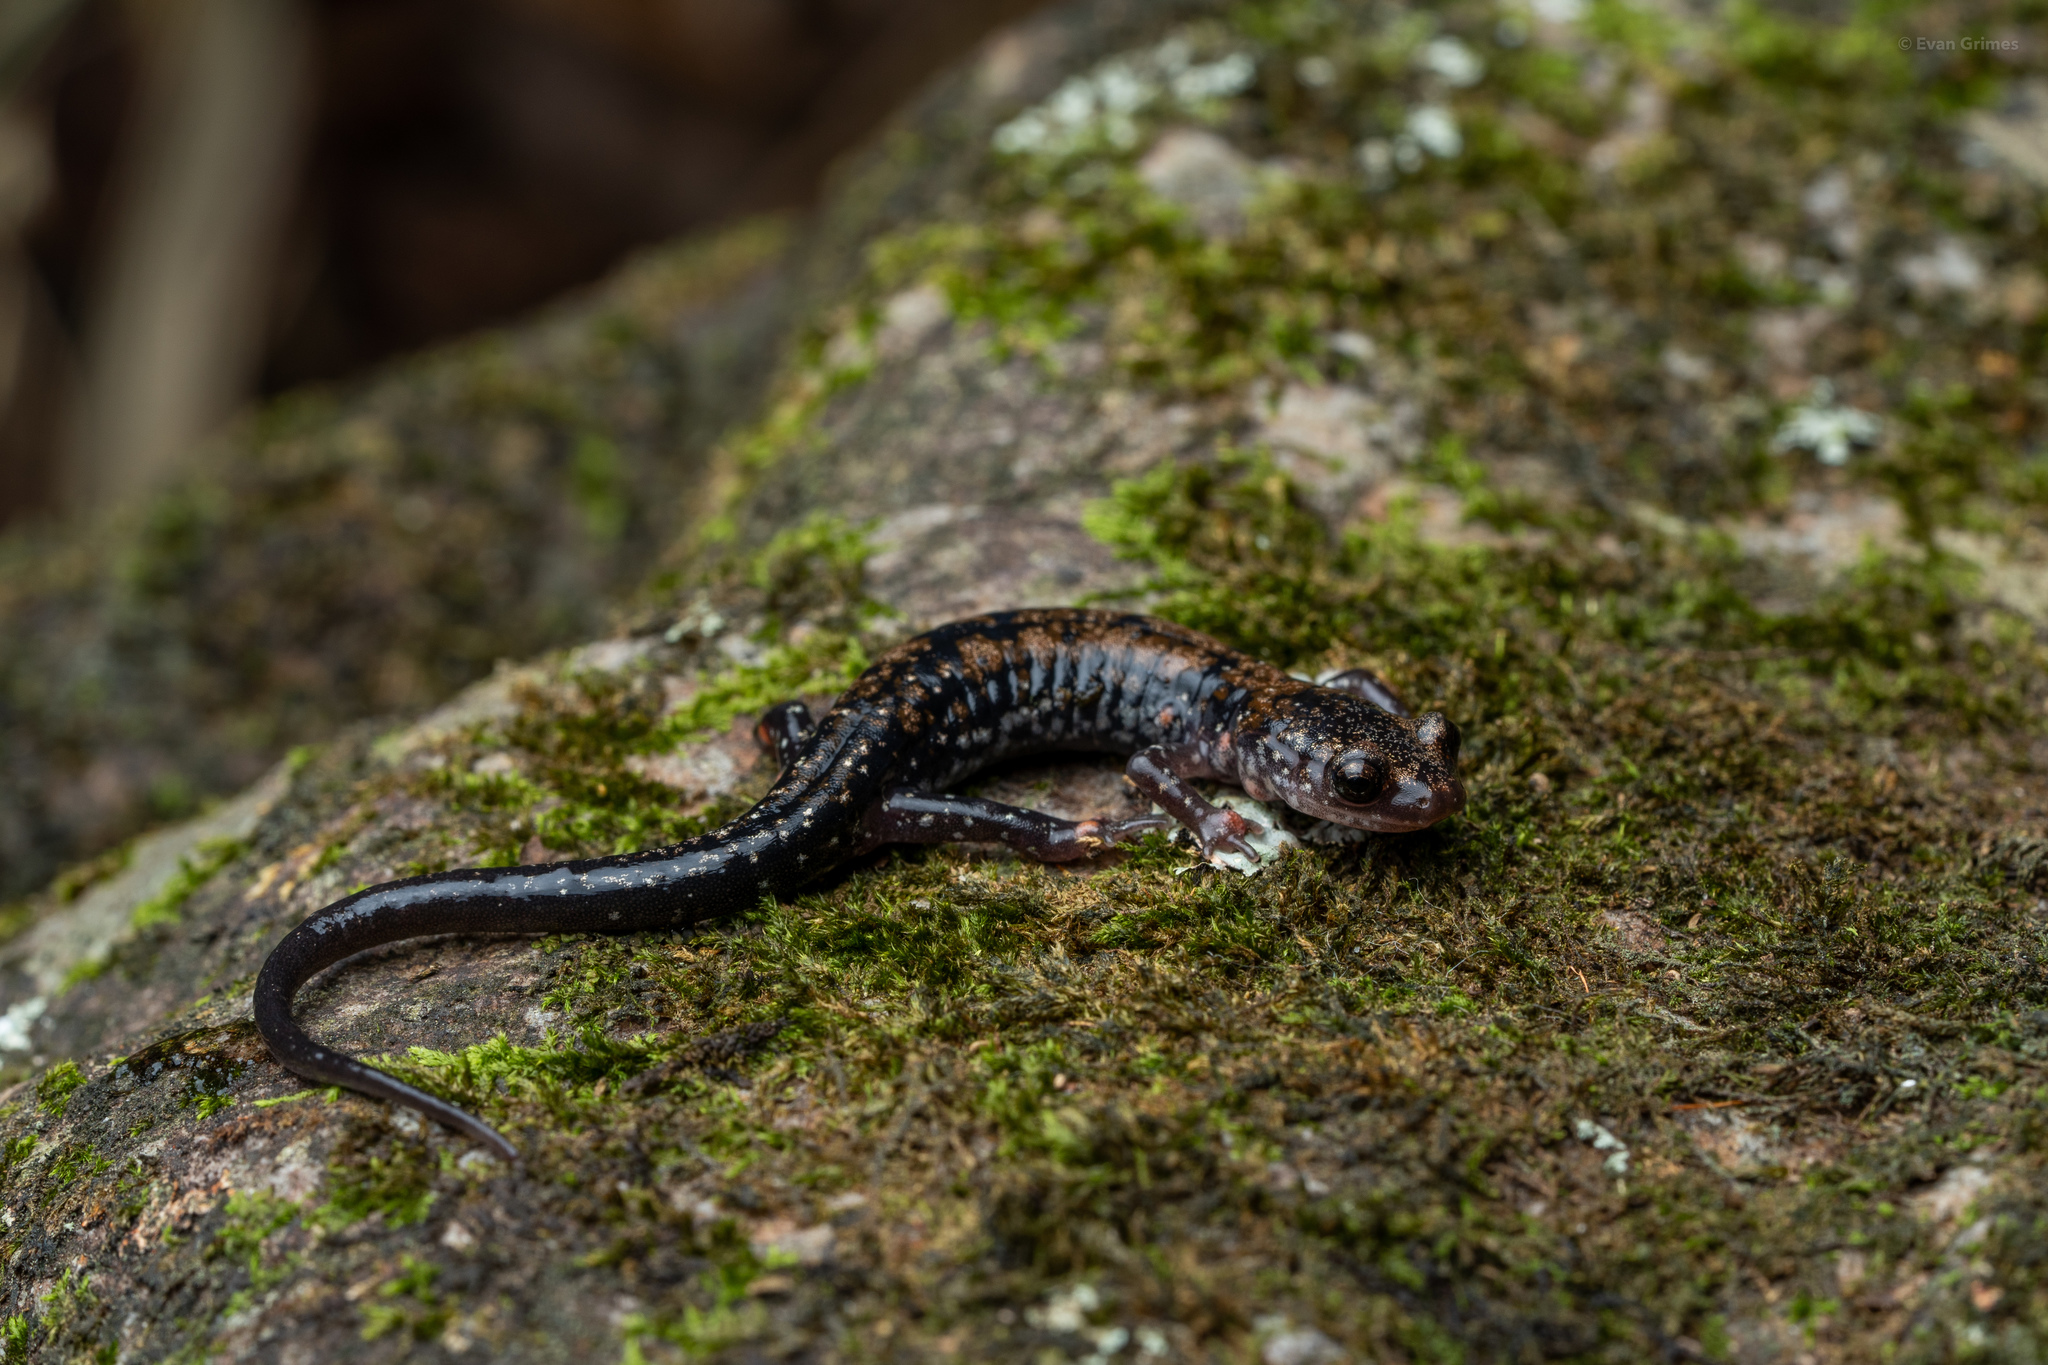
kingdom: Animalia
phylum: Chordata
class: Amphibia
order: Caudata
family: Plethodontidae
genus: Plethodon
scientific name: Plethodon ouachitae
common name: Rich mountain salamander
